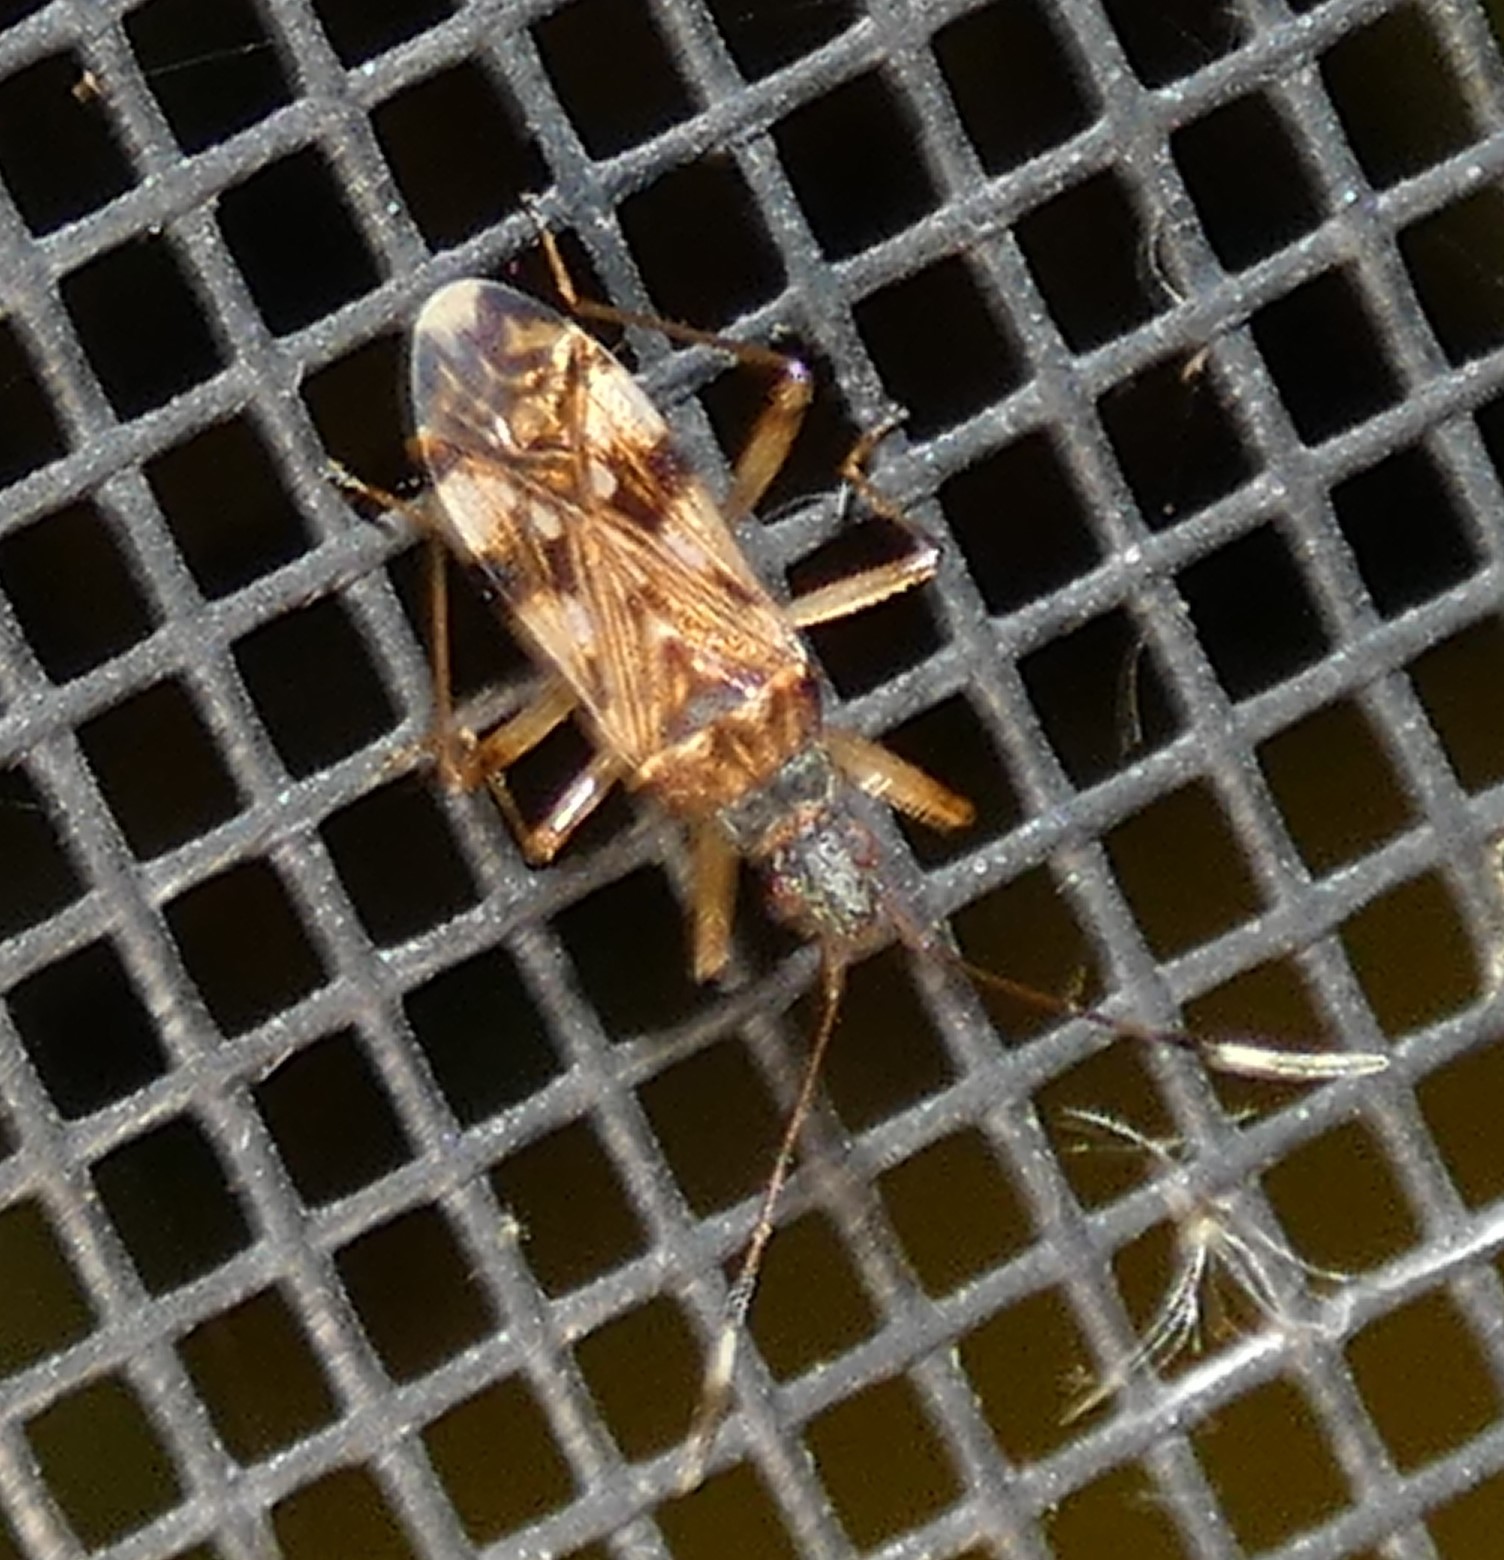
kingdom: Animalia
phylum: Arthropoda
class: Insecta
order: Hemiptera
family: Rhyparochromidae
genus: Ozophora
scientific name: Ozophora picturata
